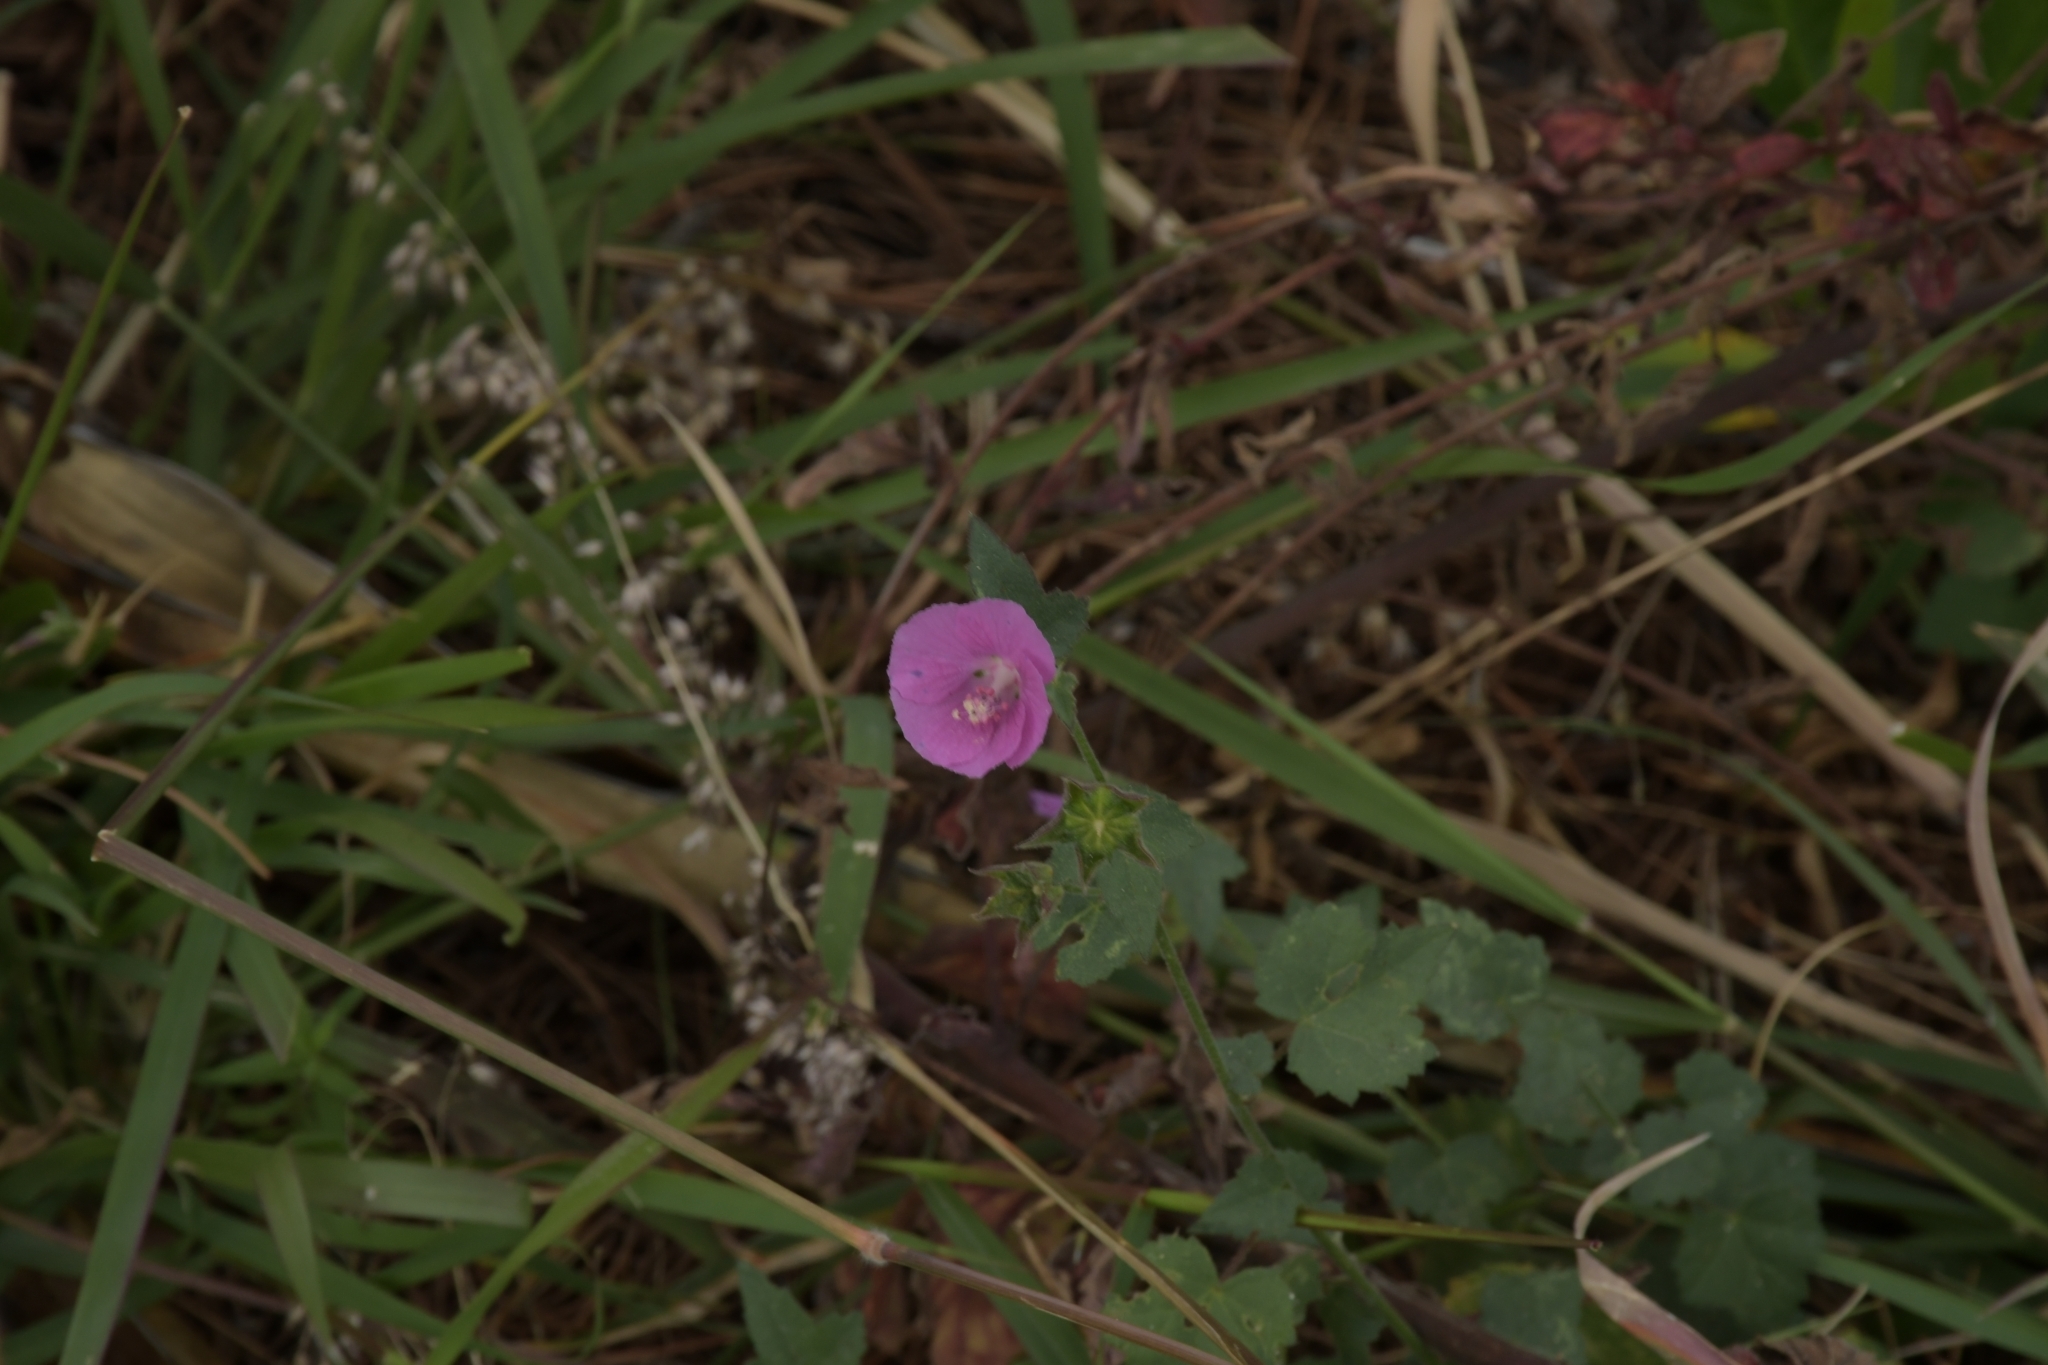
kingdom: Plantae
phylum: Tracheophyta
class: Magnoliopsida
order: Malvales
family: Malvaceae
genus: Anoda
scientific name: Anoda cristata
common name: Spurred anoda
